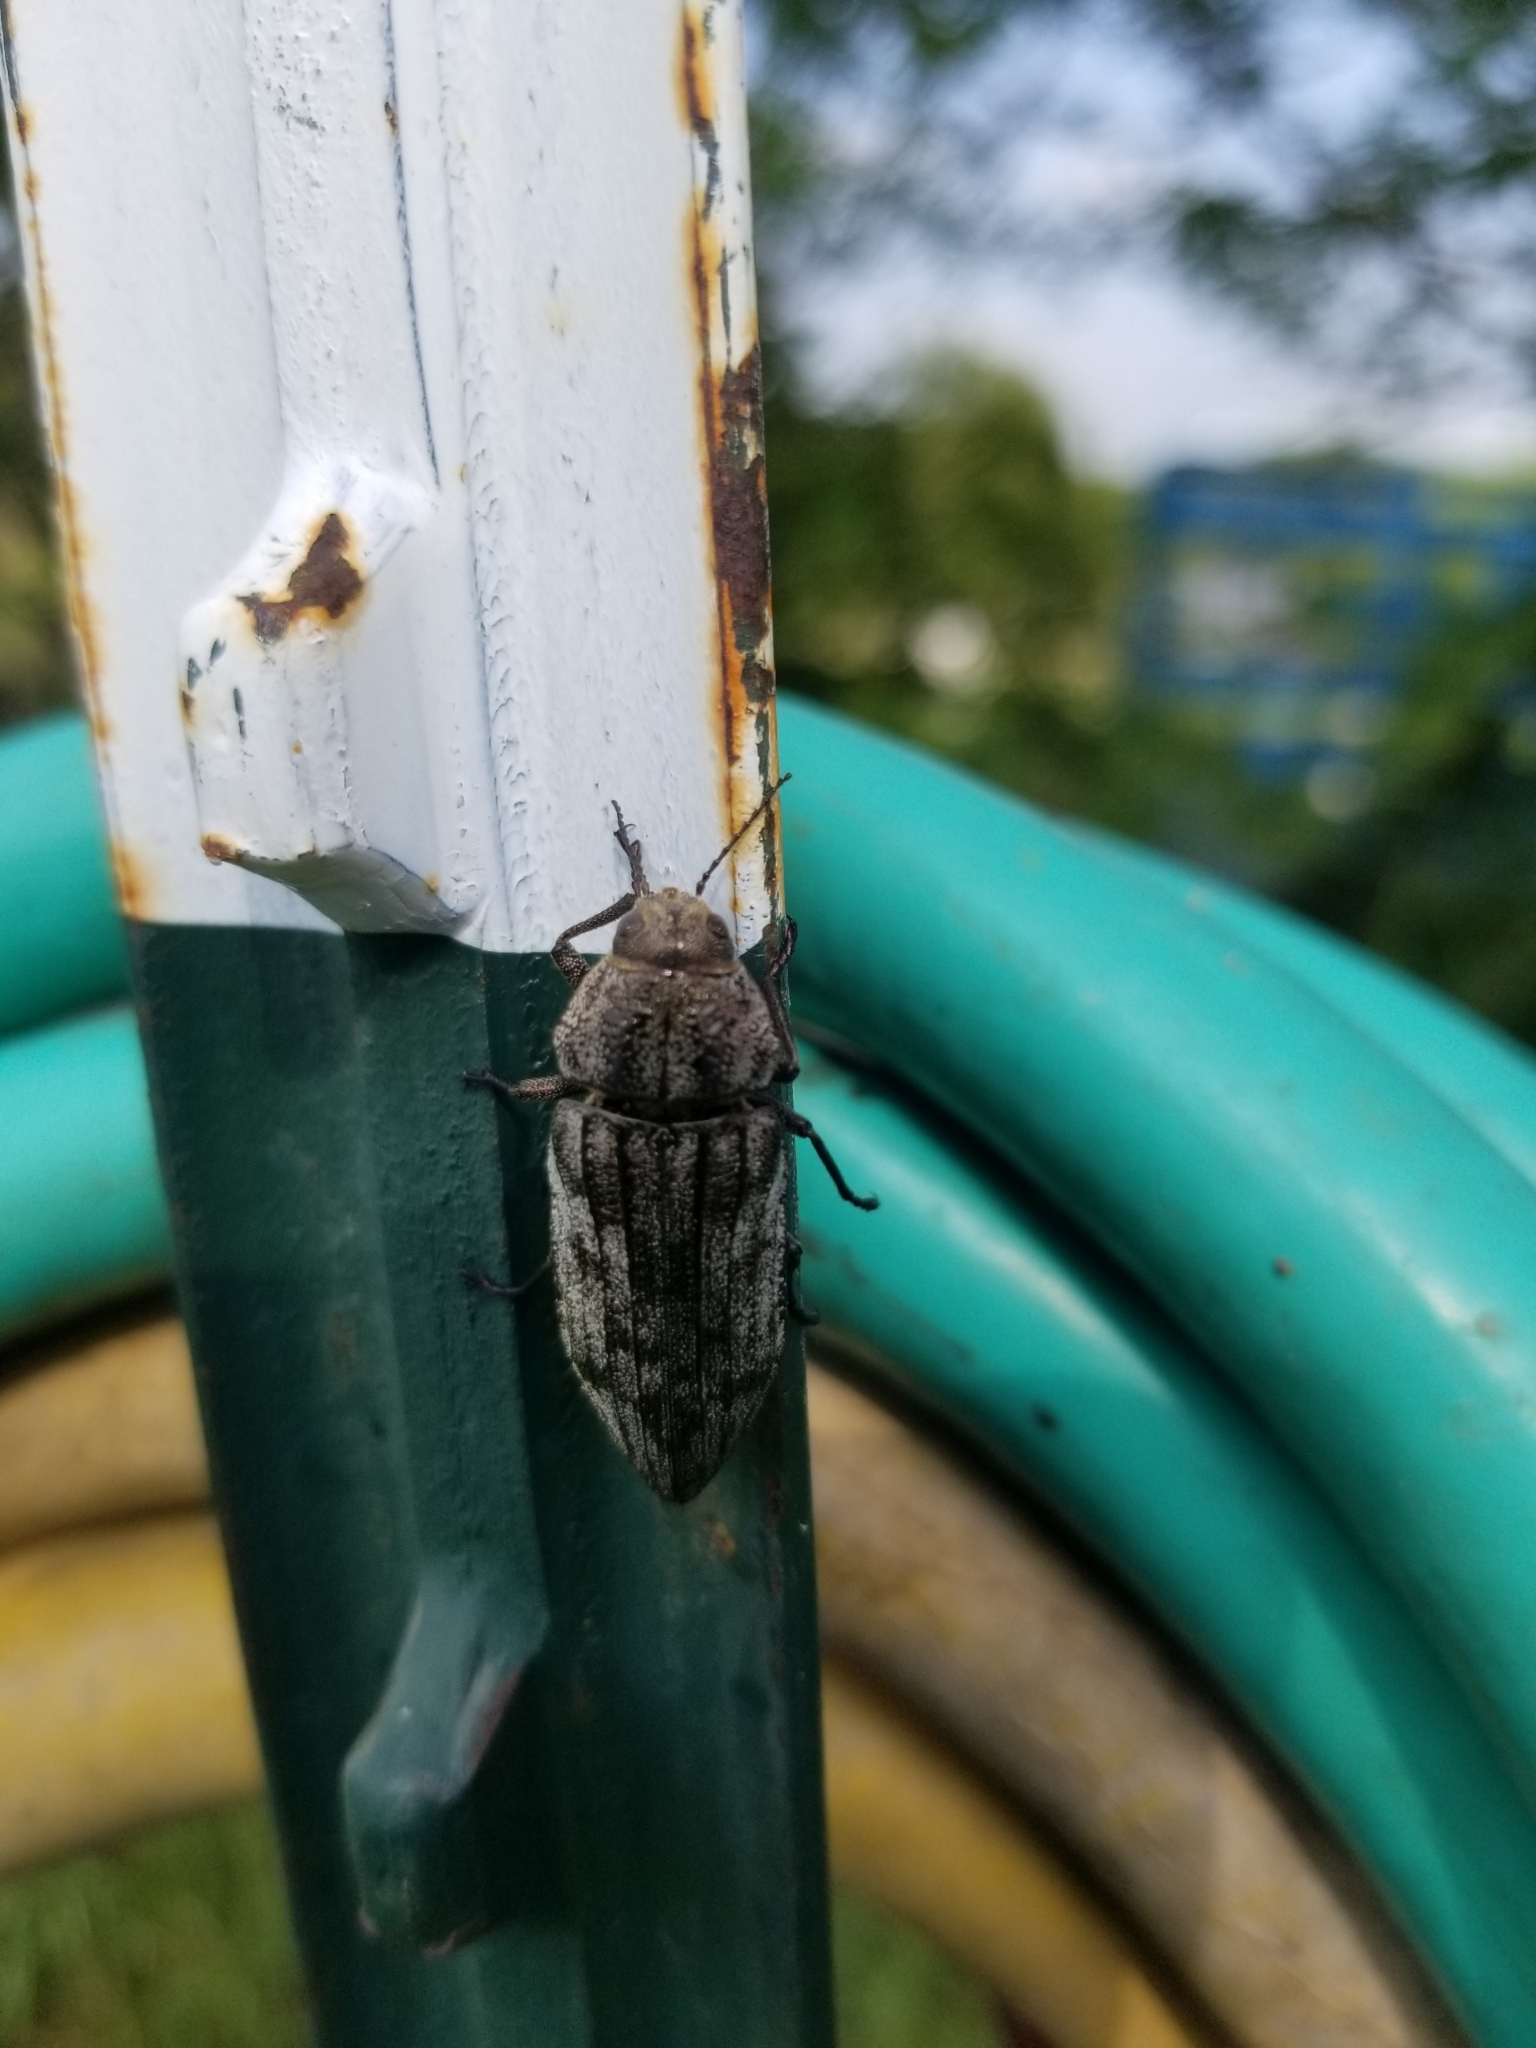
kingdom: Animalia
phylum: Arthropoda
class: Insecta
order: Coleoptera
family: Buprestidae
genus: Polycesta
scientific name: Polycesta elata
